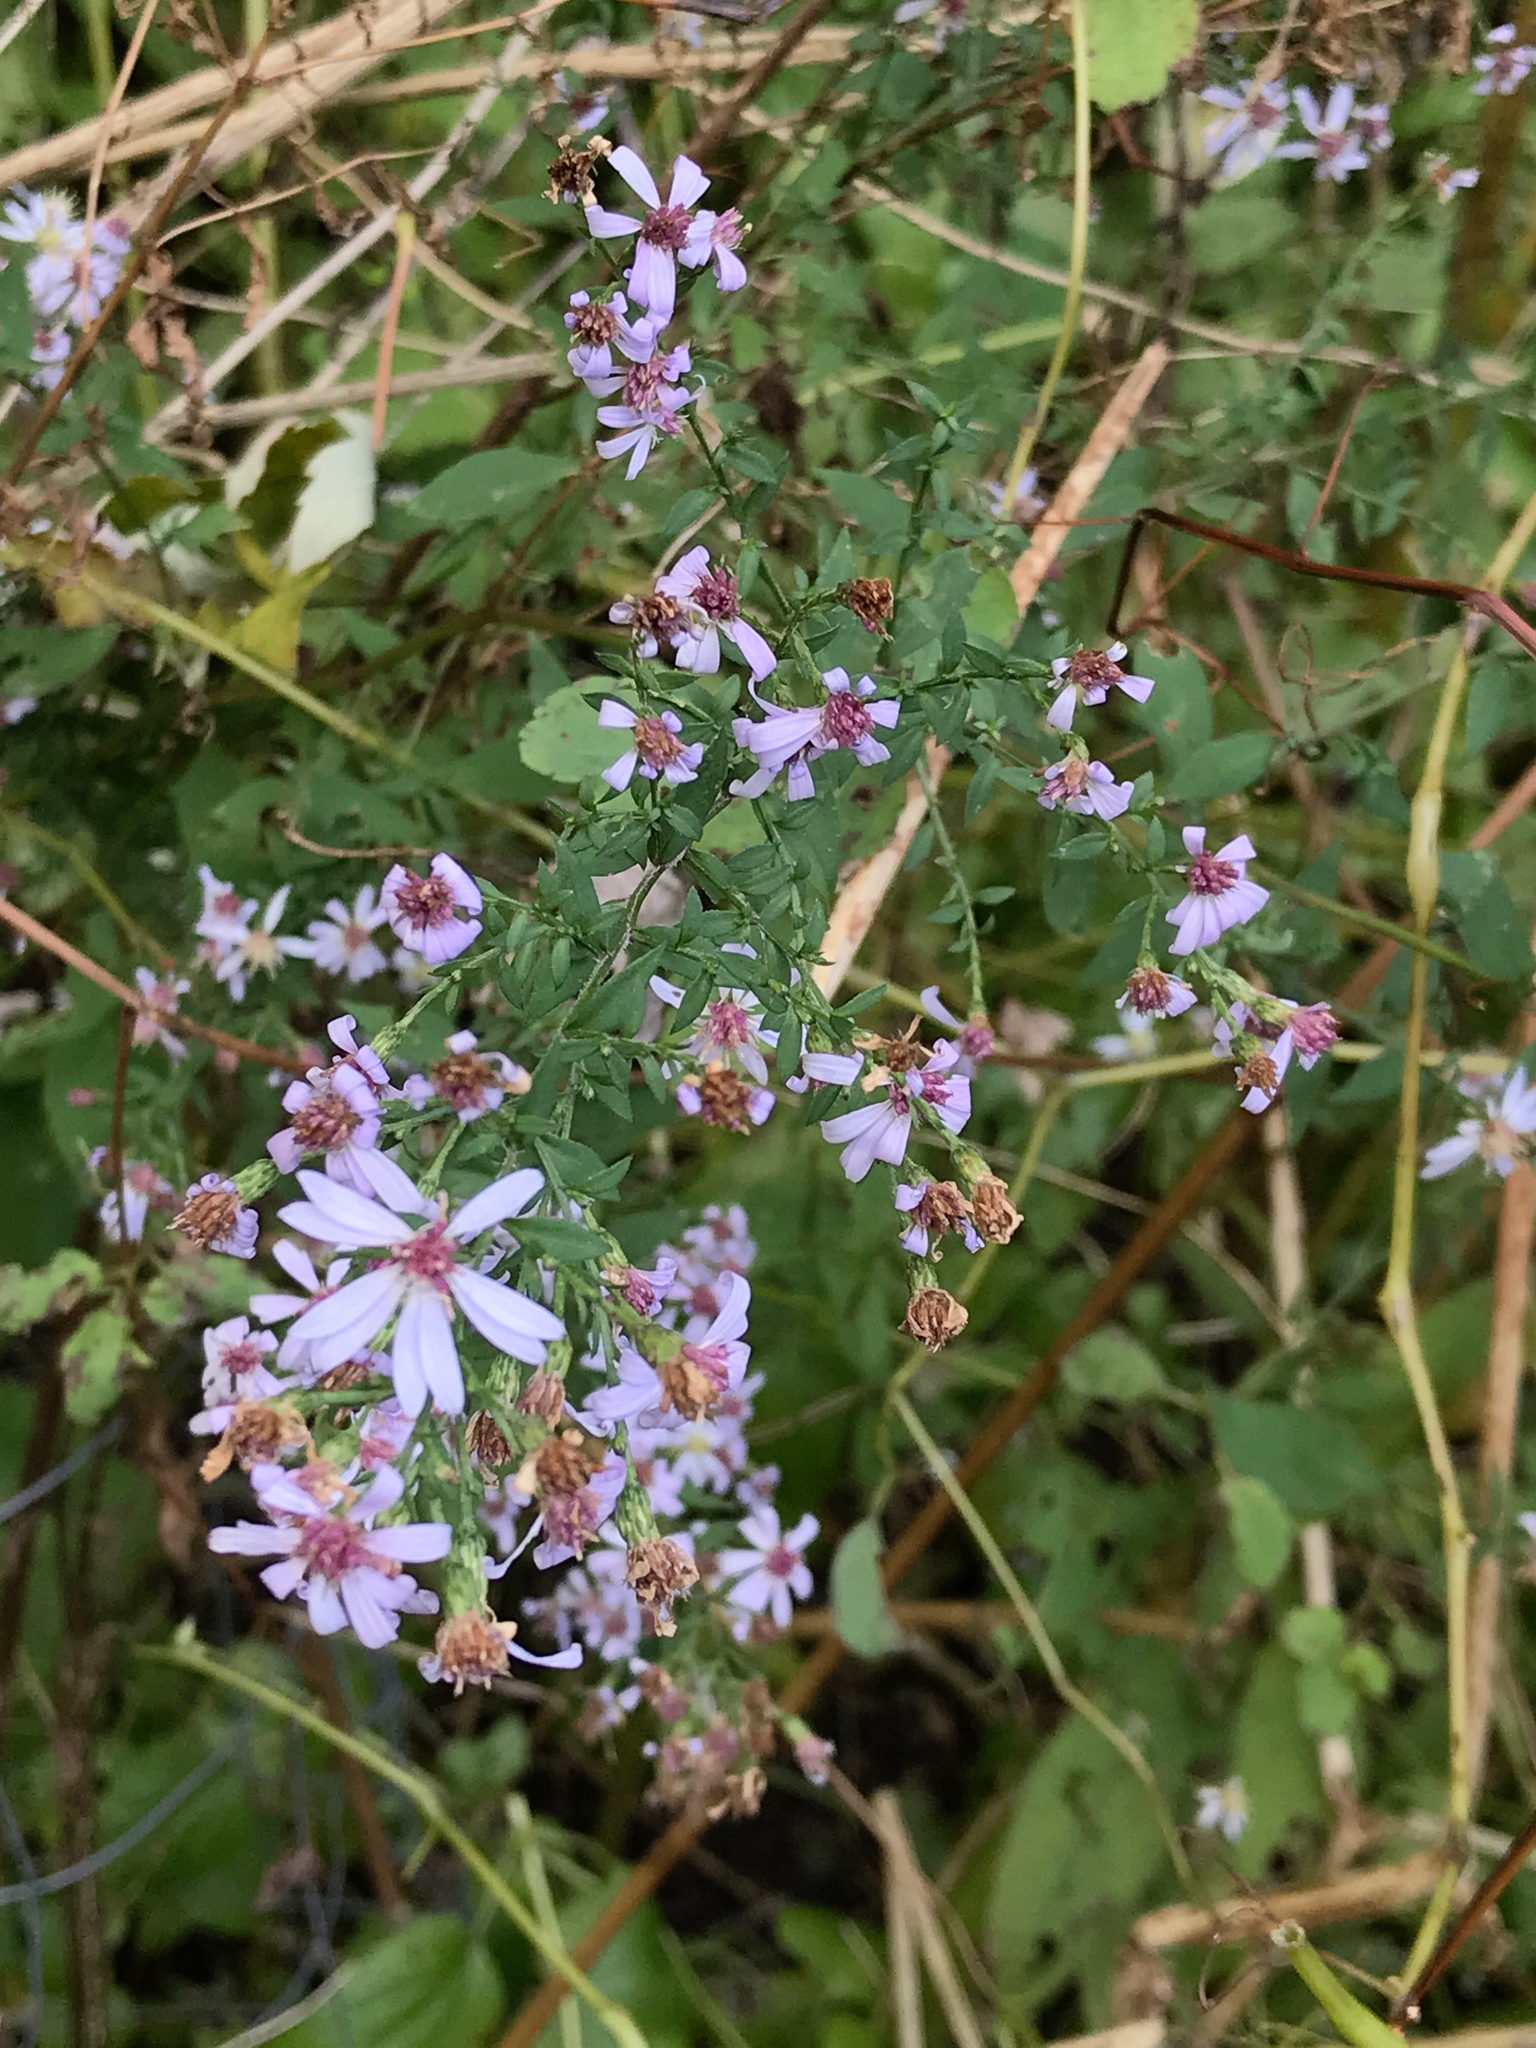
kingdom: Plantae
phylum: Tracheophyta
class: Magnoliopsida
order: Asterales
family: Asteraceae
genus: Symphyotrichum
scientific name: Symphyotrichum cordifolium
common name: Beeweed
